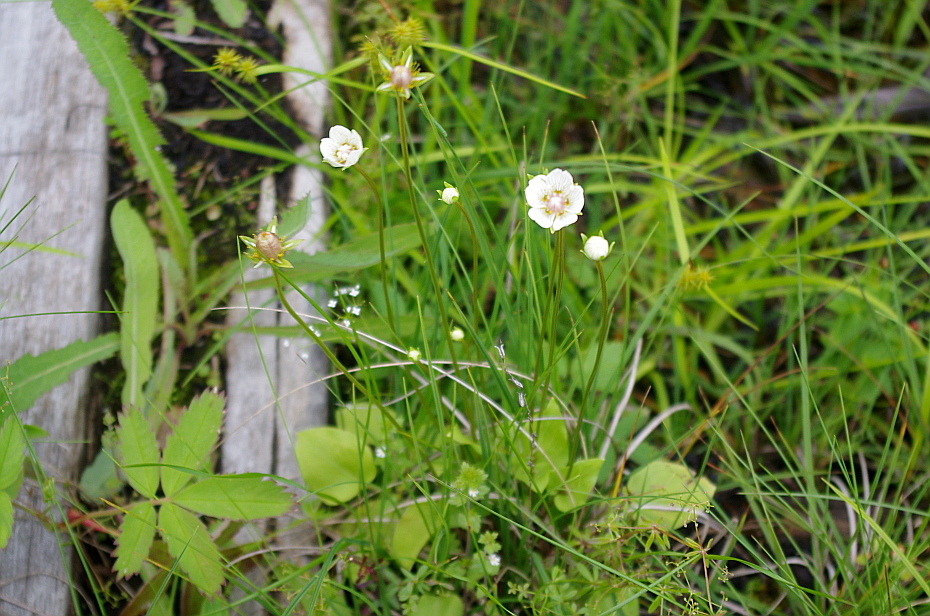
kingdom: Plantae
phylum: Tracheophyta
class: Magnoliopsida
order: Celastrales
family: Parnassiaceae
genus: Parnassia
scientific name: Parnassia palustris
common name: Grass-of-parnassus
